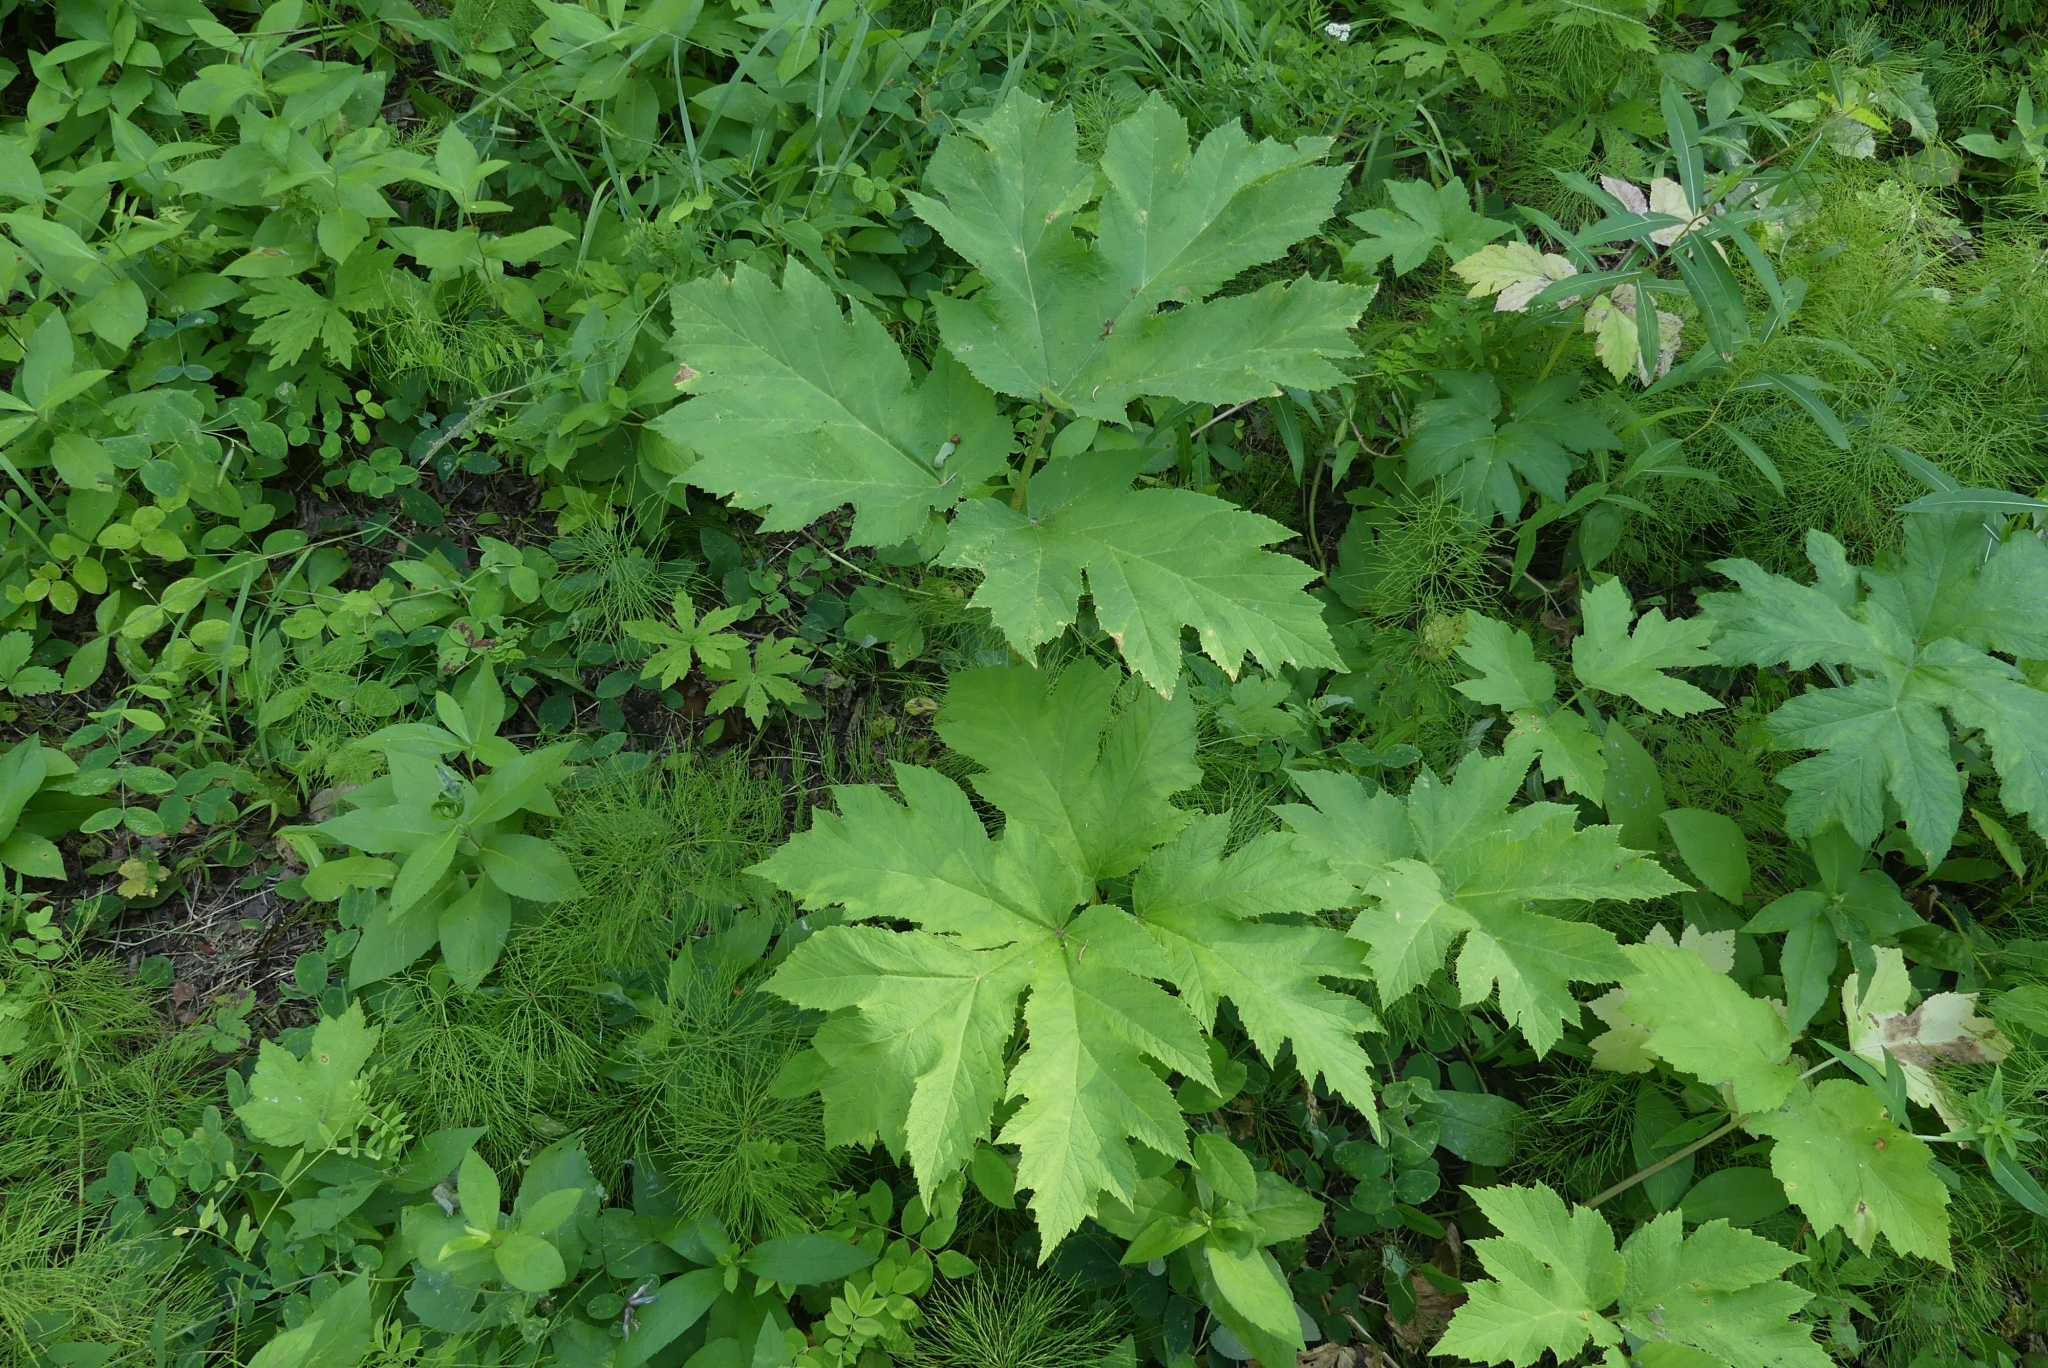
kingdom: Plantae
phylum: Tracheophyta
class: Magnoliopsida
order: Apiales
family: Apiaceae
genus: Heracleum
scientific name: Heracleum maximum
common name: American cow parsnip
